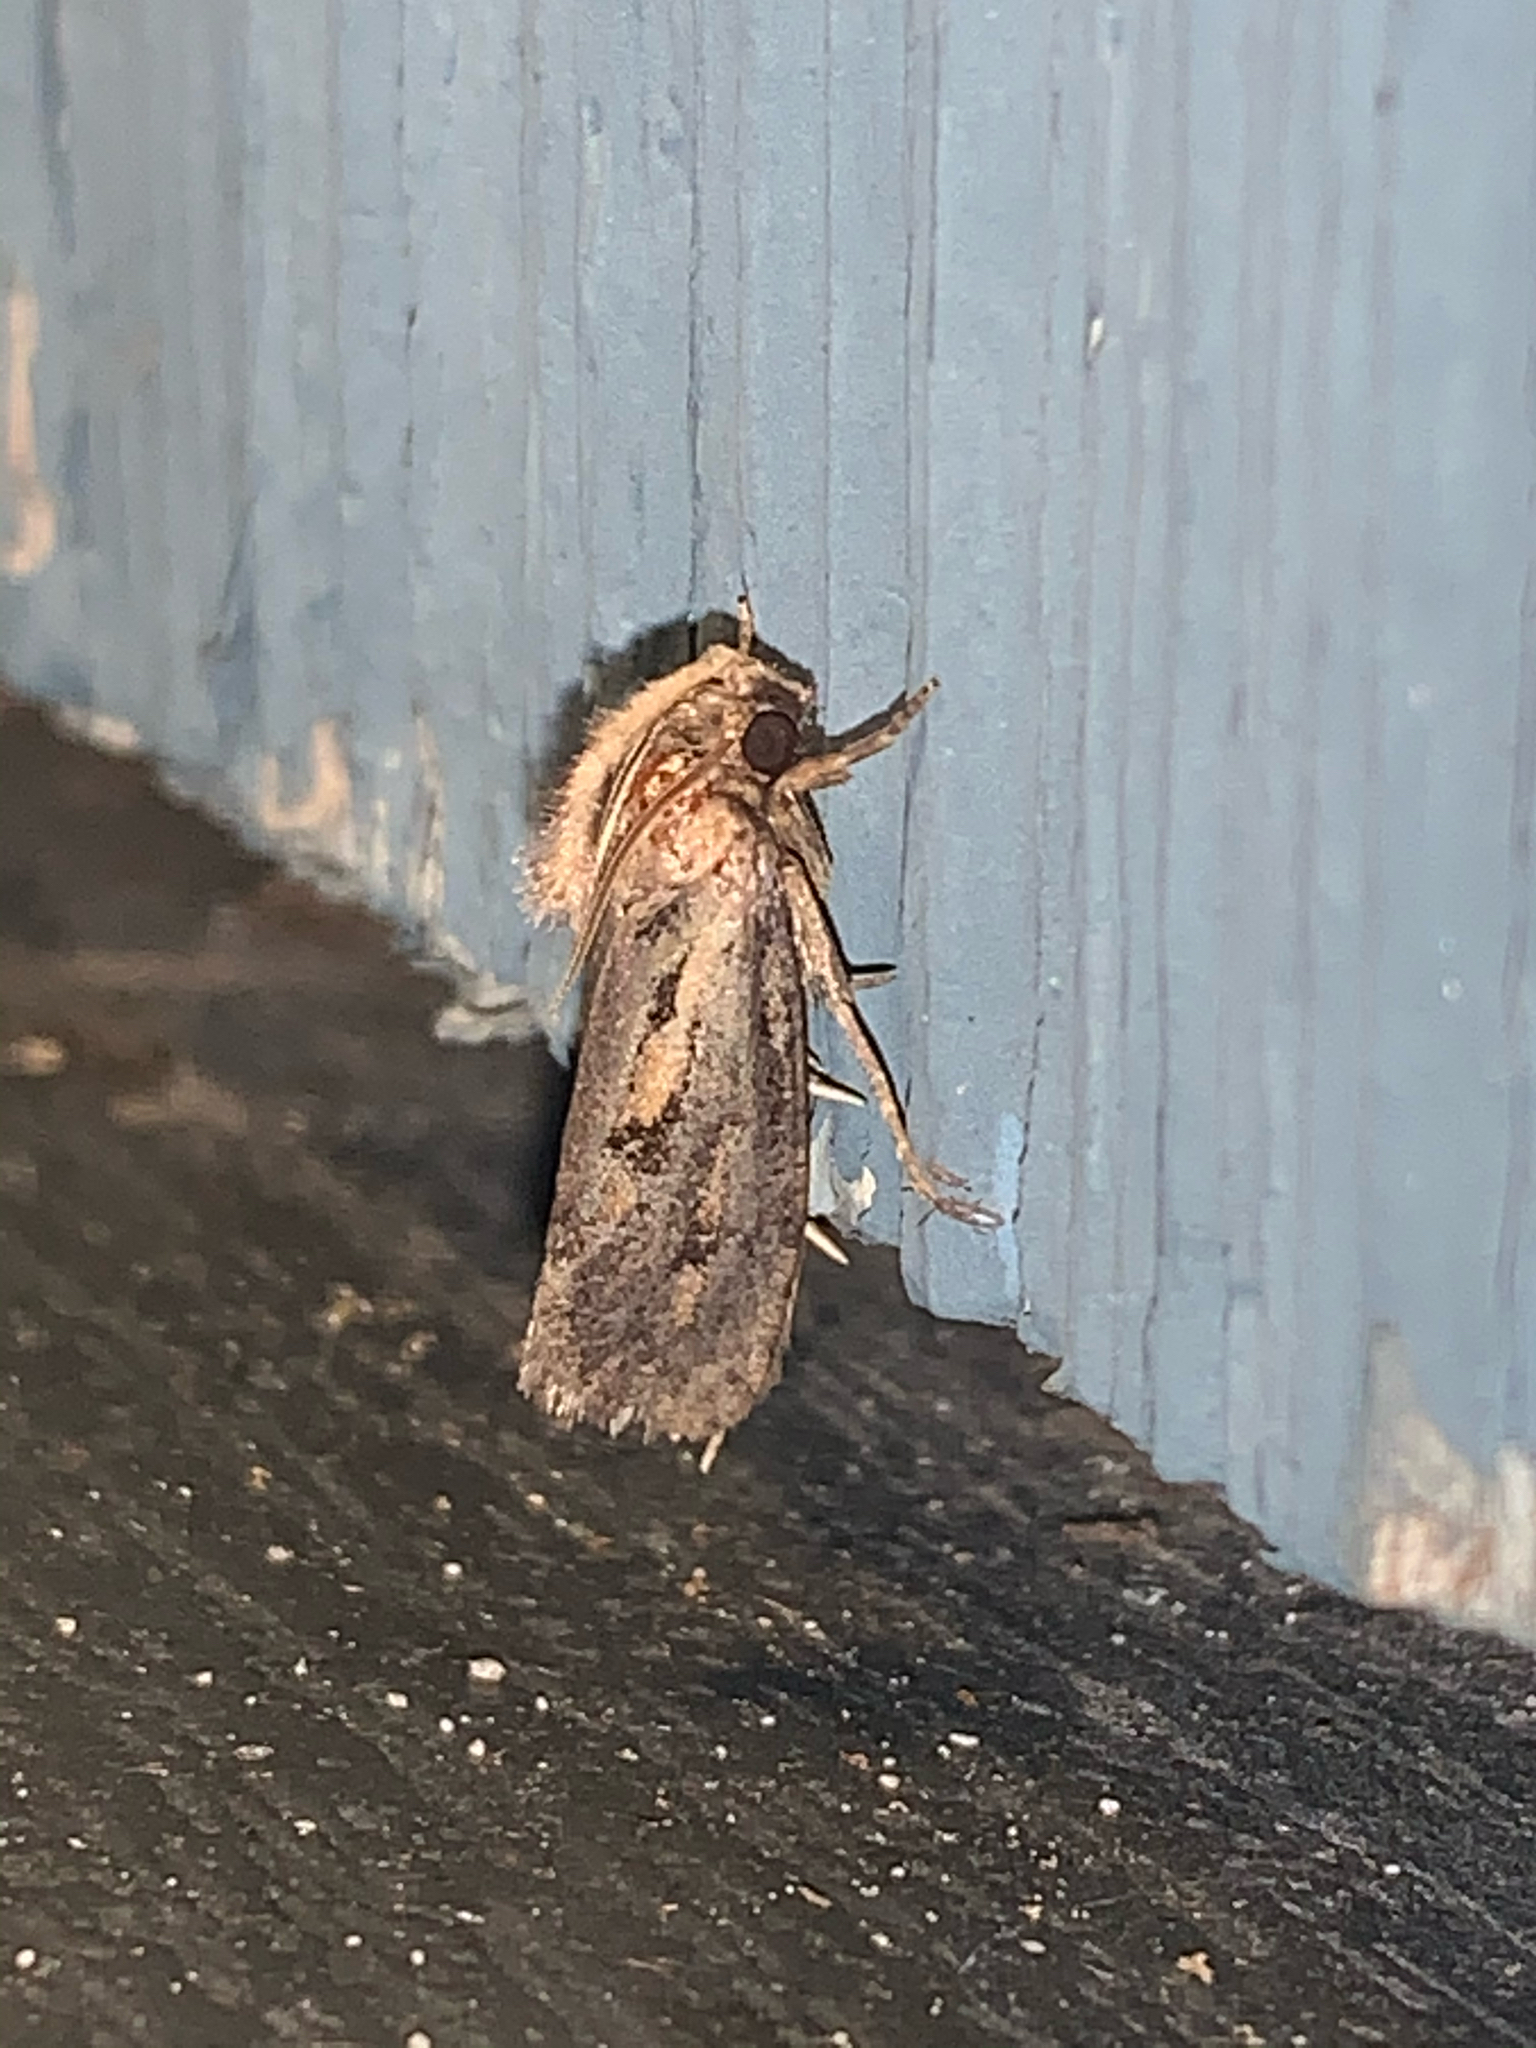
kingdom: Animalia
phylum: Arthropoda
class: Insecta
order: Lepidoptera
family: Tineidae
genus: Acrolophus
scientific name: Acrolophus popeanella
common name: Clemens' grass tubeworm moth
